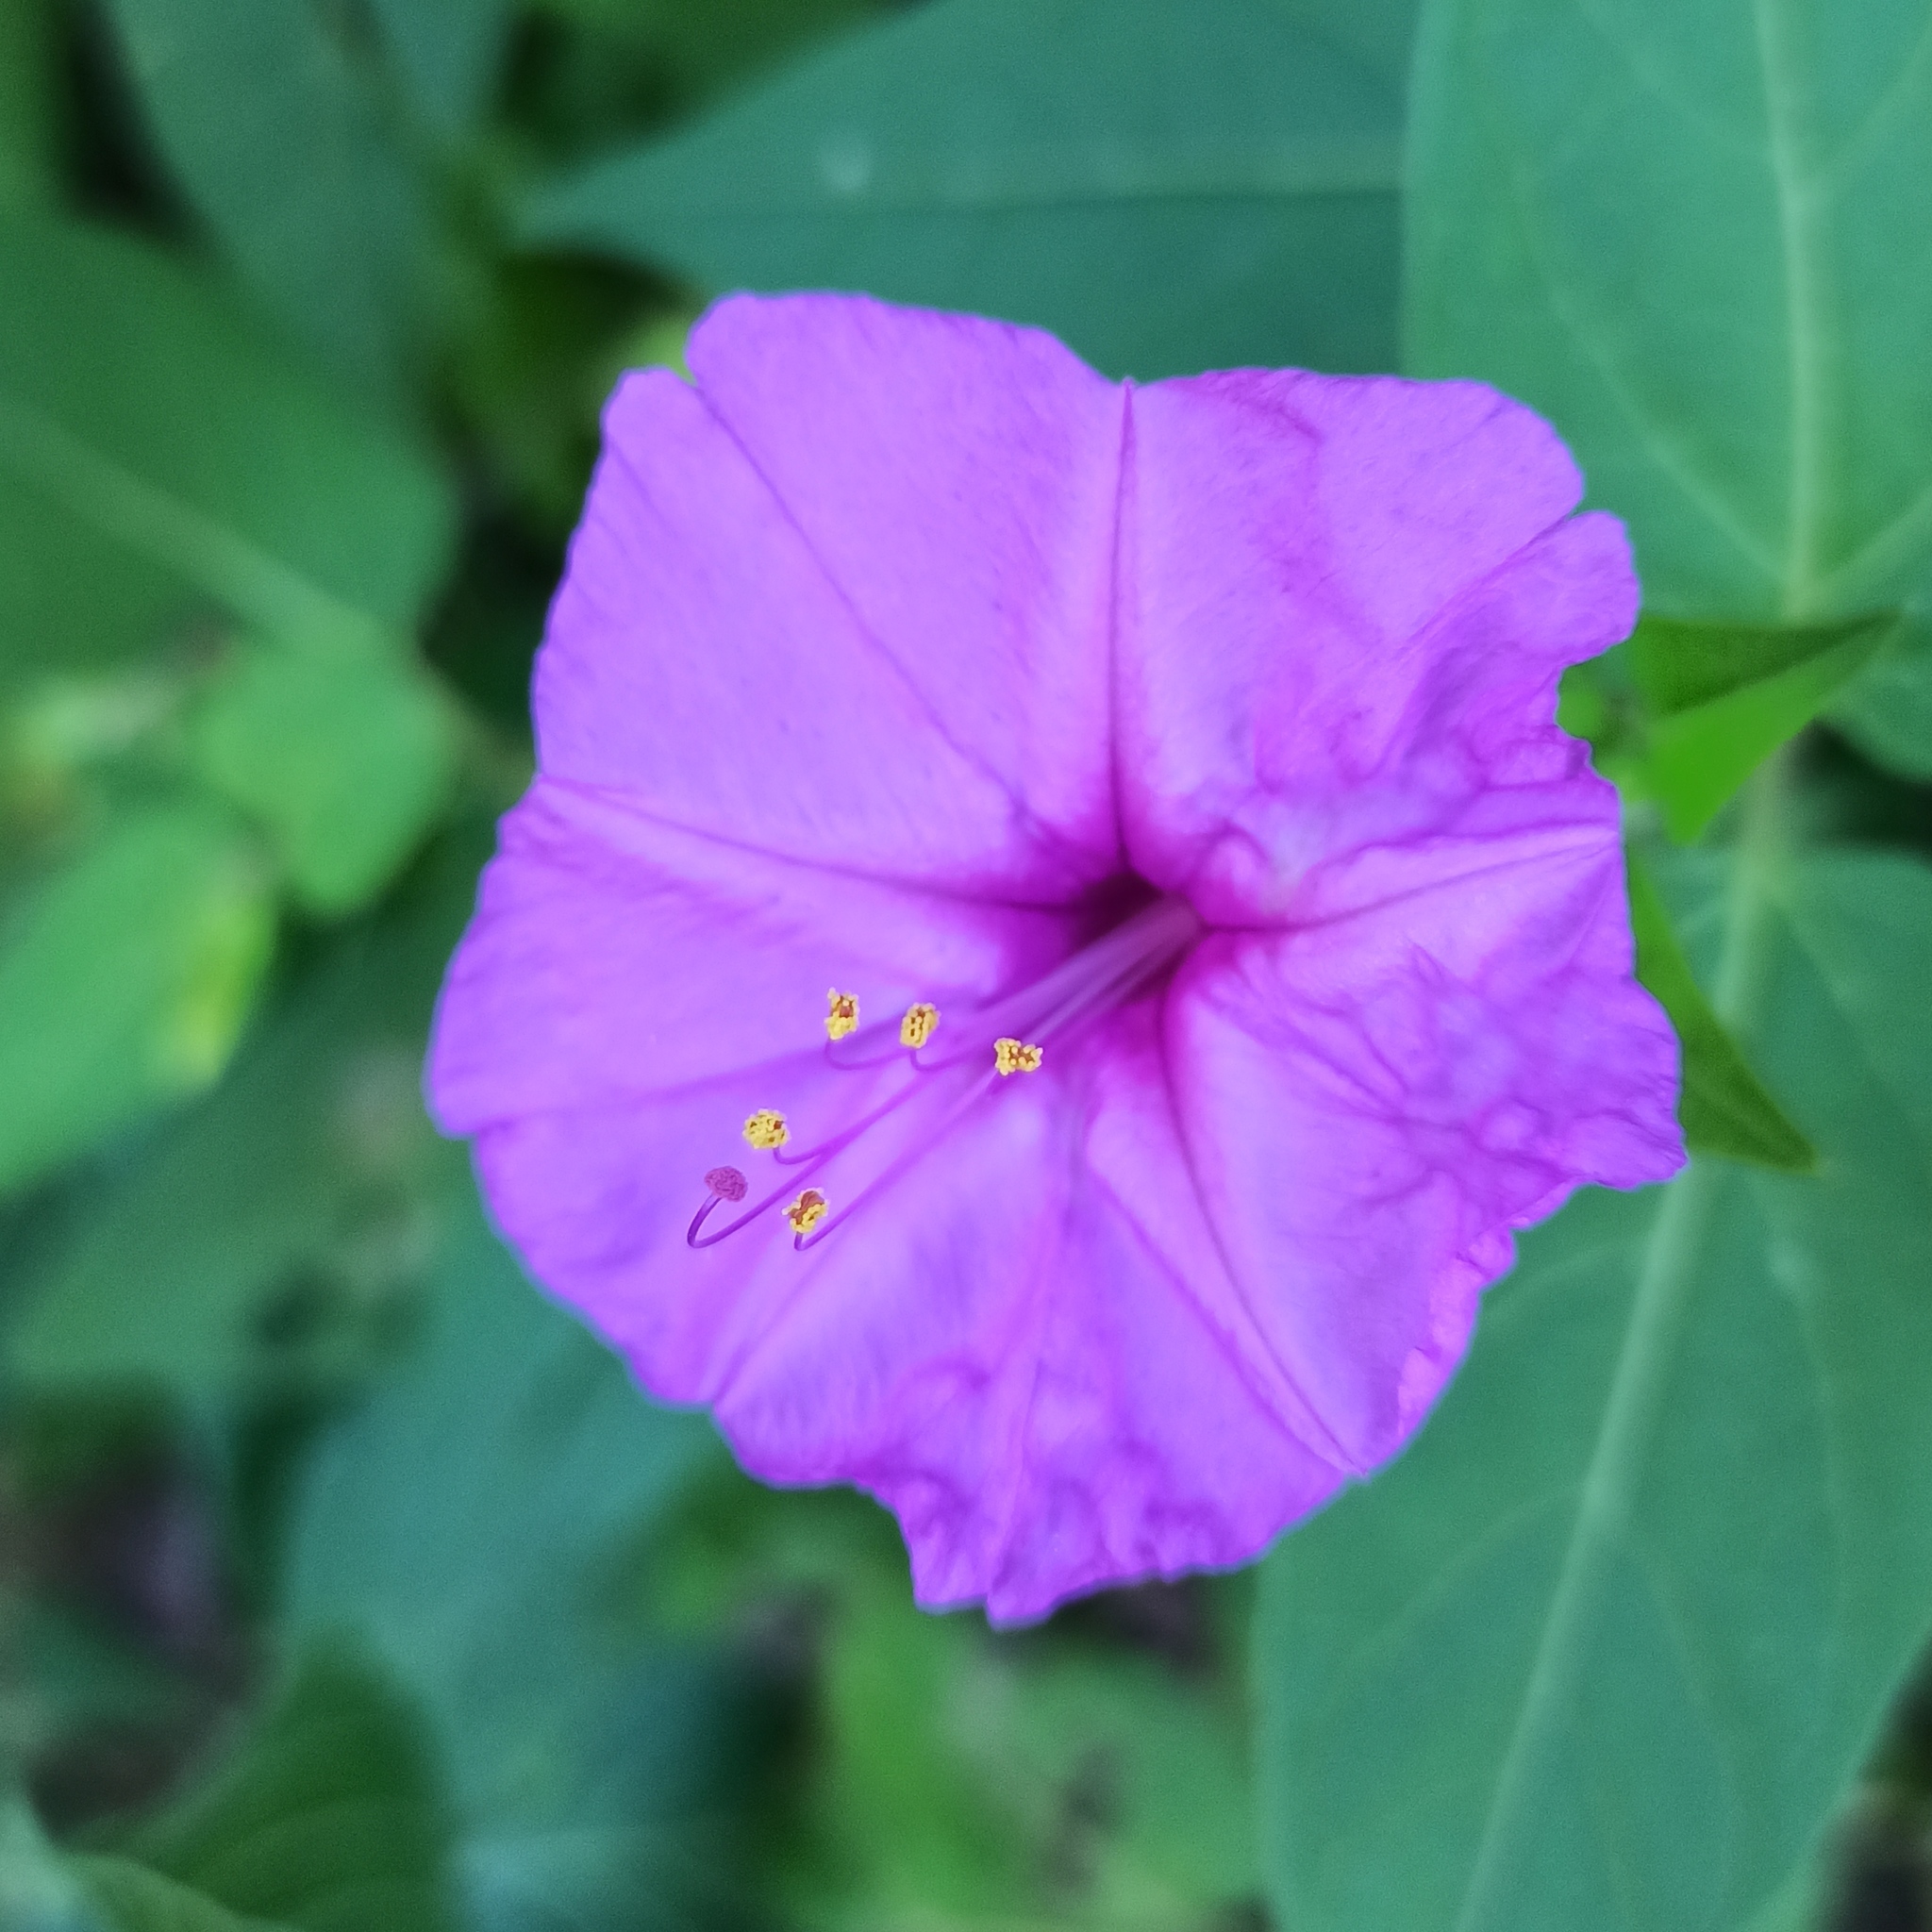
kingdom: Plantae
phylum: Tracheophyta
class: Magnoliopsida
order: Caryophyllales
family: Nyctaginaceae
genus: Mirabilis
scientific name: Mirabilis jalapa
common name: Marvel-of-peru
